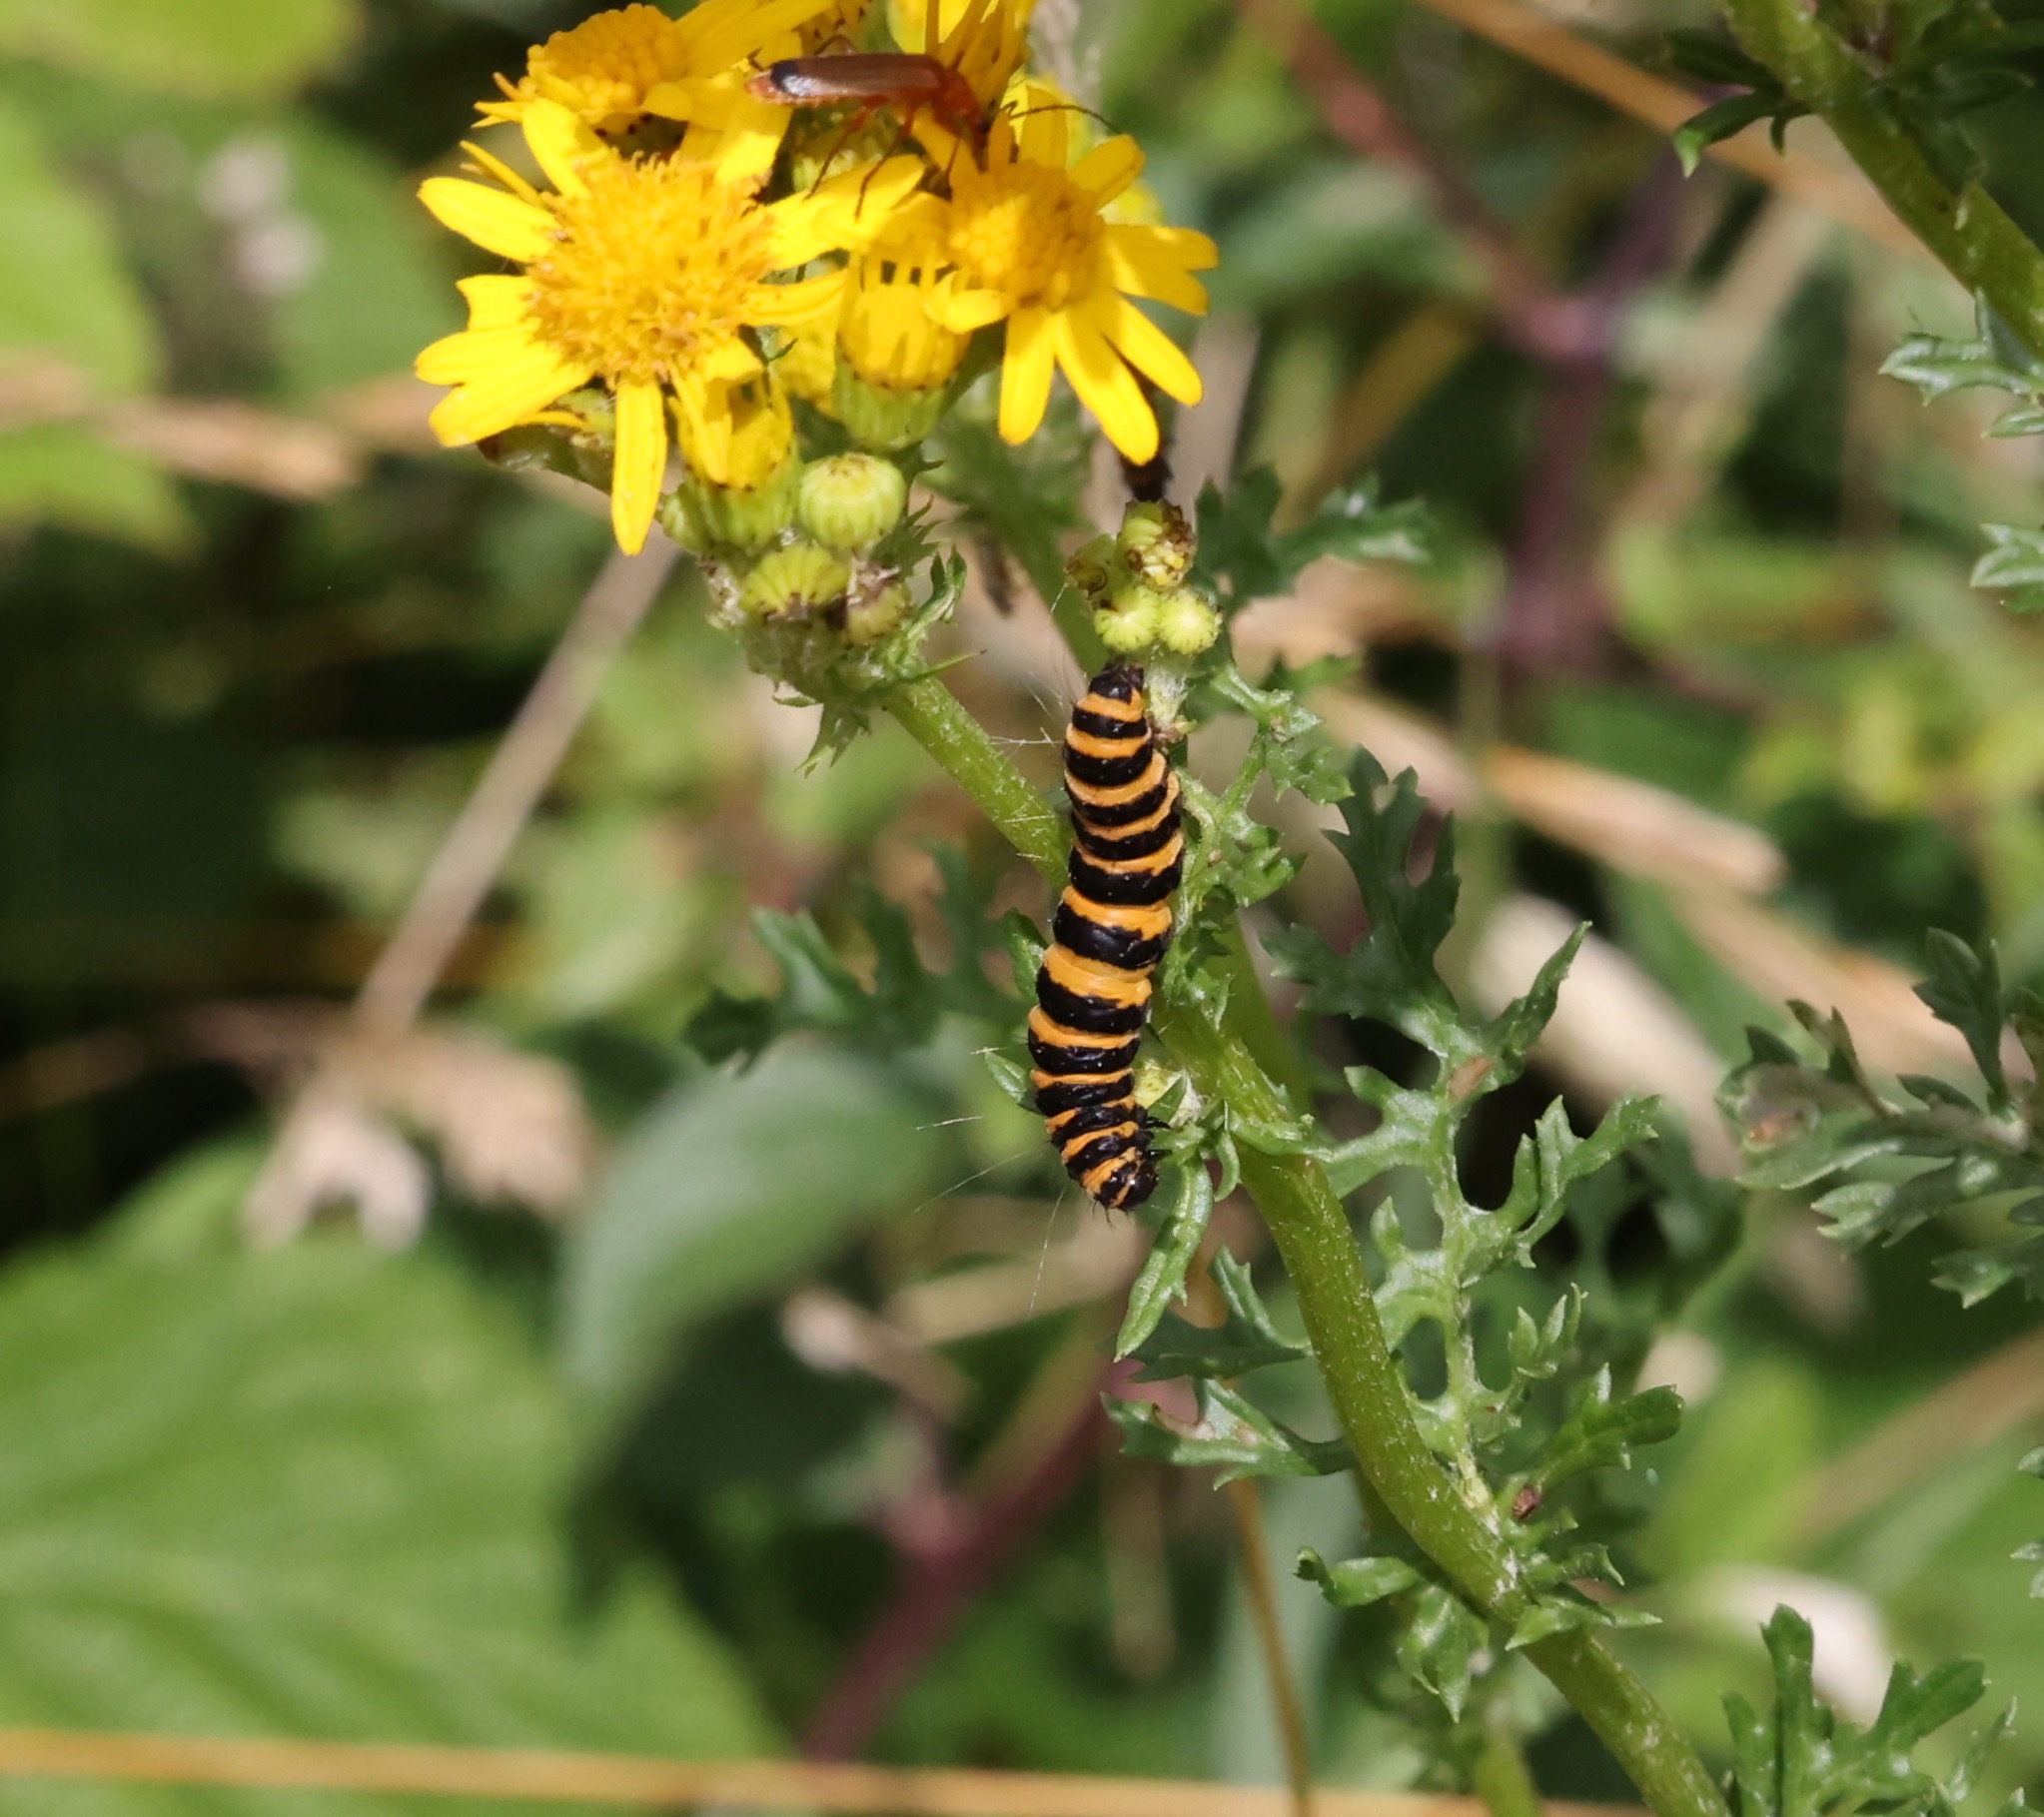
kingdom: Animalia
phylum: Arthropoda
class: Insecta
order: Lepidoptera
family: Erebidae
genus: Tyria
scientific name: Tyria jacobaeae
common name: Cinnabar
